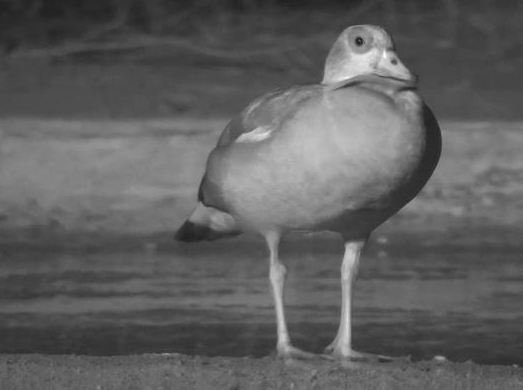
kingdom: Animalia
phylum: Chordata
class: Aves
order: Anseriformes
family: Anatidae
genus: Alopochen
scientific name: Alopochen aegyptiaca
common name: Egyptian goose
